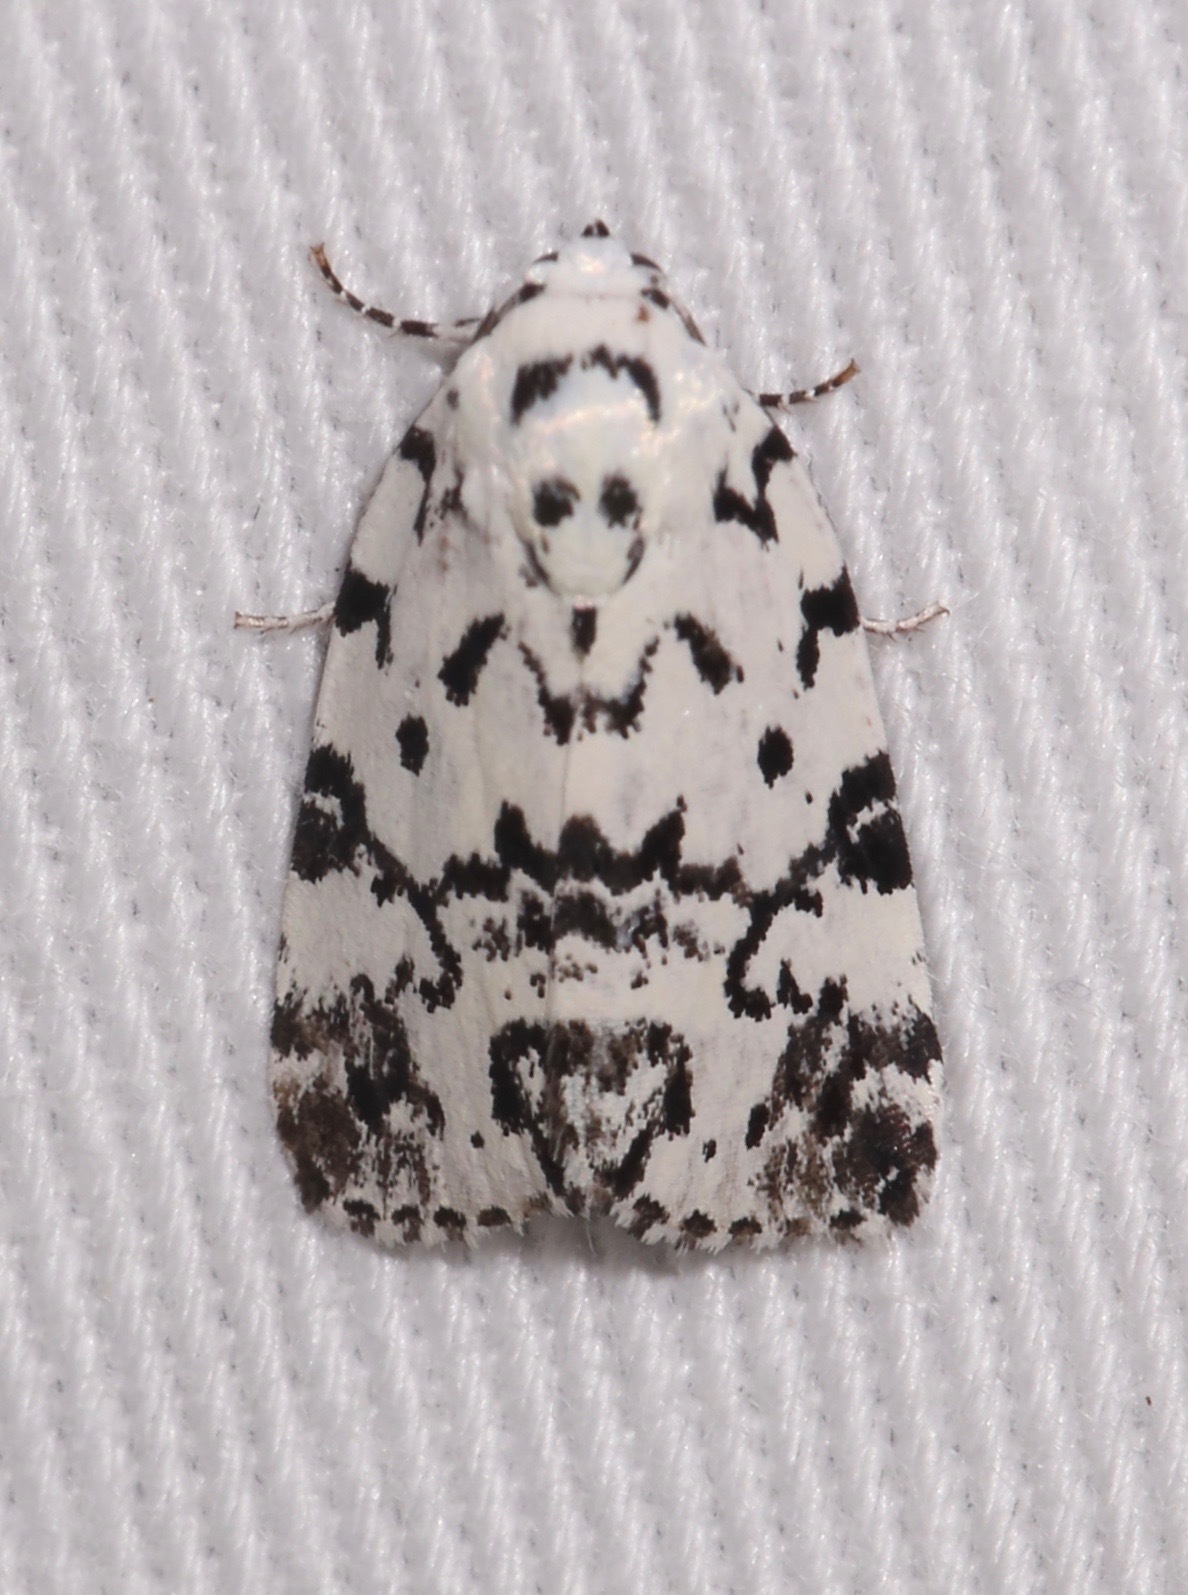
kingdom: Animalia
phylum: Arthropoda
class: Insecta
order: Lepidoptera
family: Noctuidae
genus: Polygrammate
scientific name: Polygrammate hebraeicum
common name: Hebrew moth
